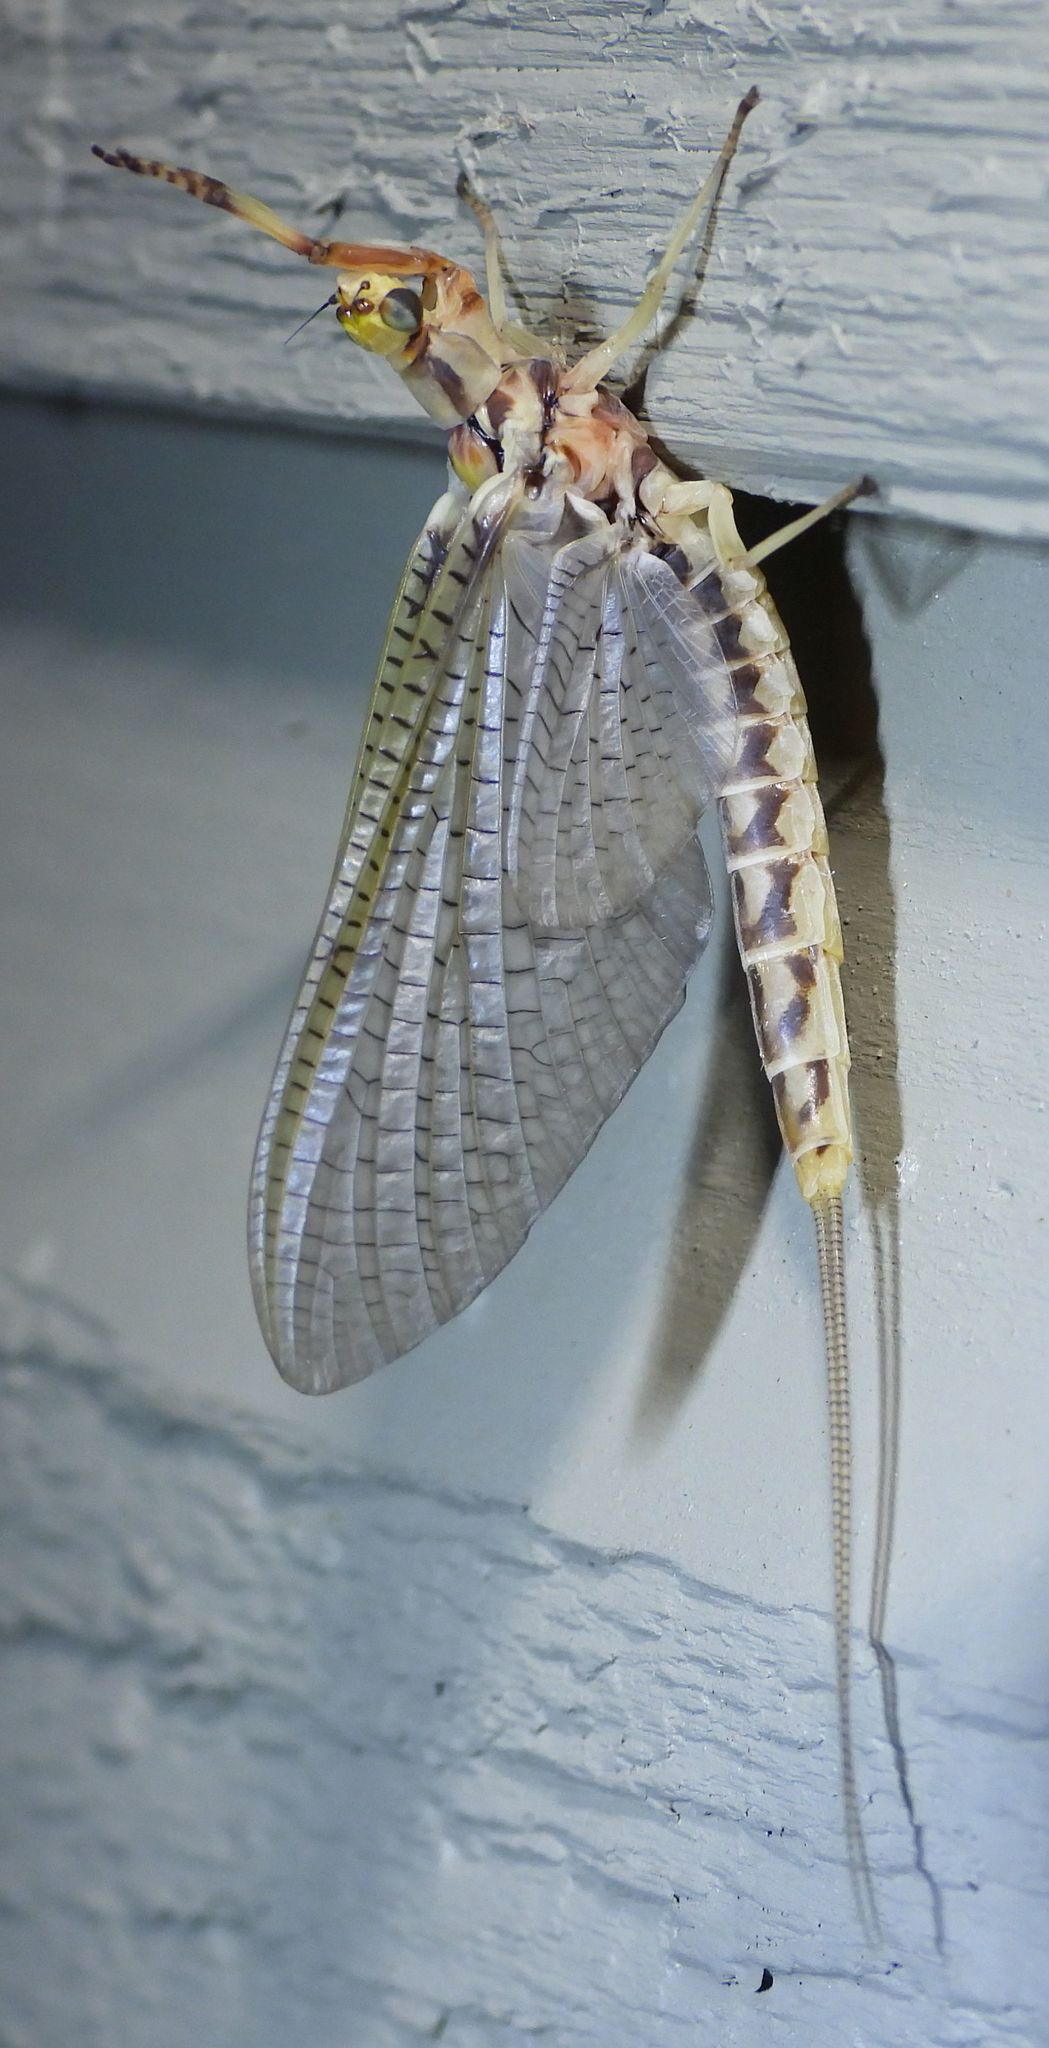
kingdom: Animalia
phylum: Arthropoda
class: Insecta
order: Ephemeroptera
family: Ephemeridae
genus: Hexagenia
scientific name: Hexagenia limbata
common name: Giant mayfly
